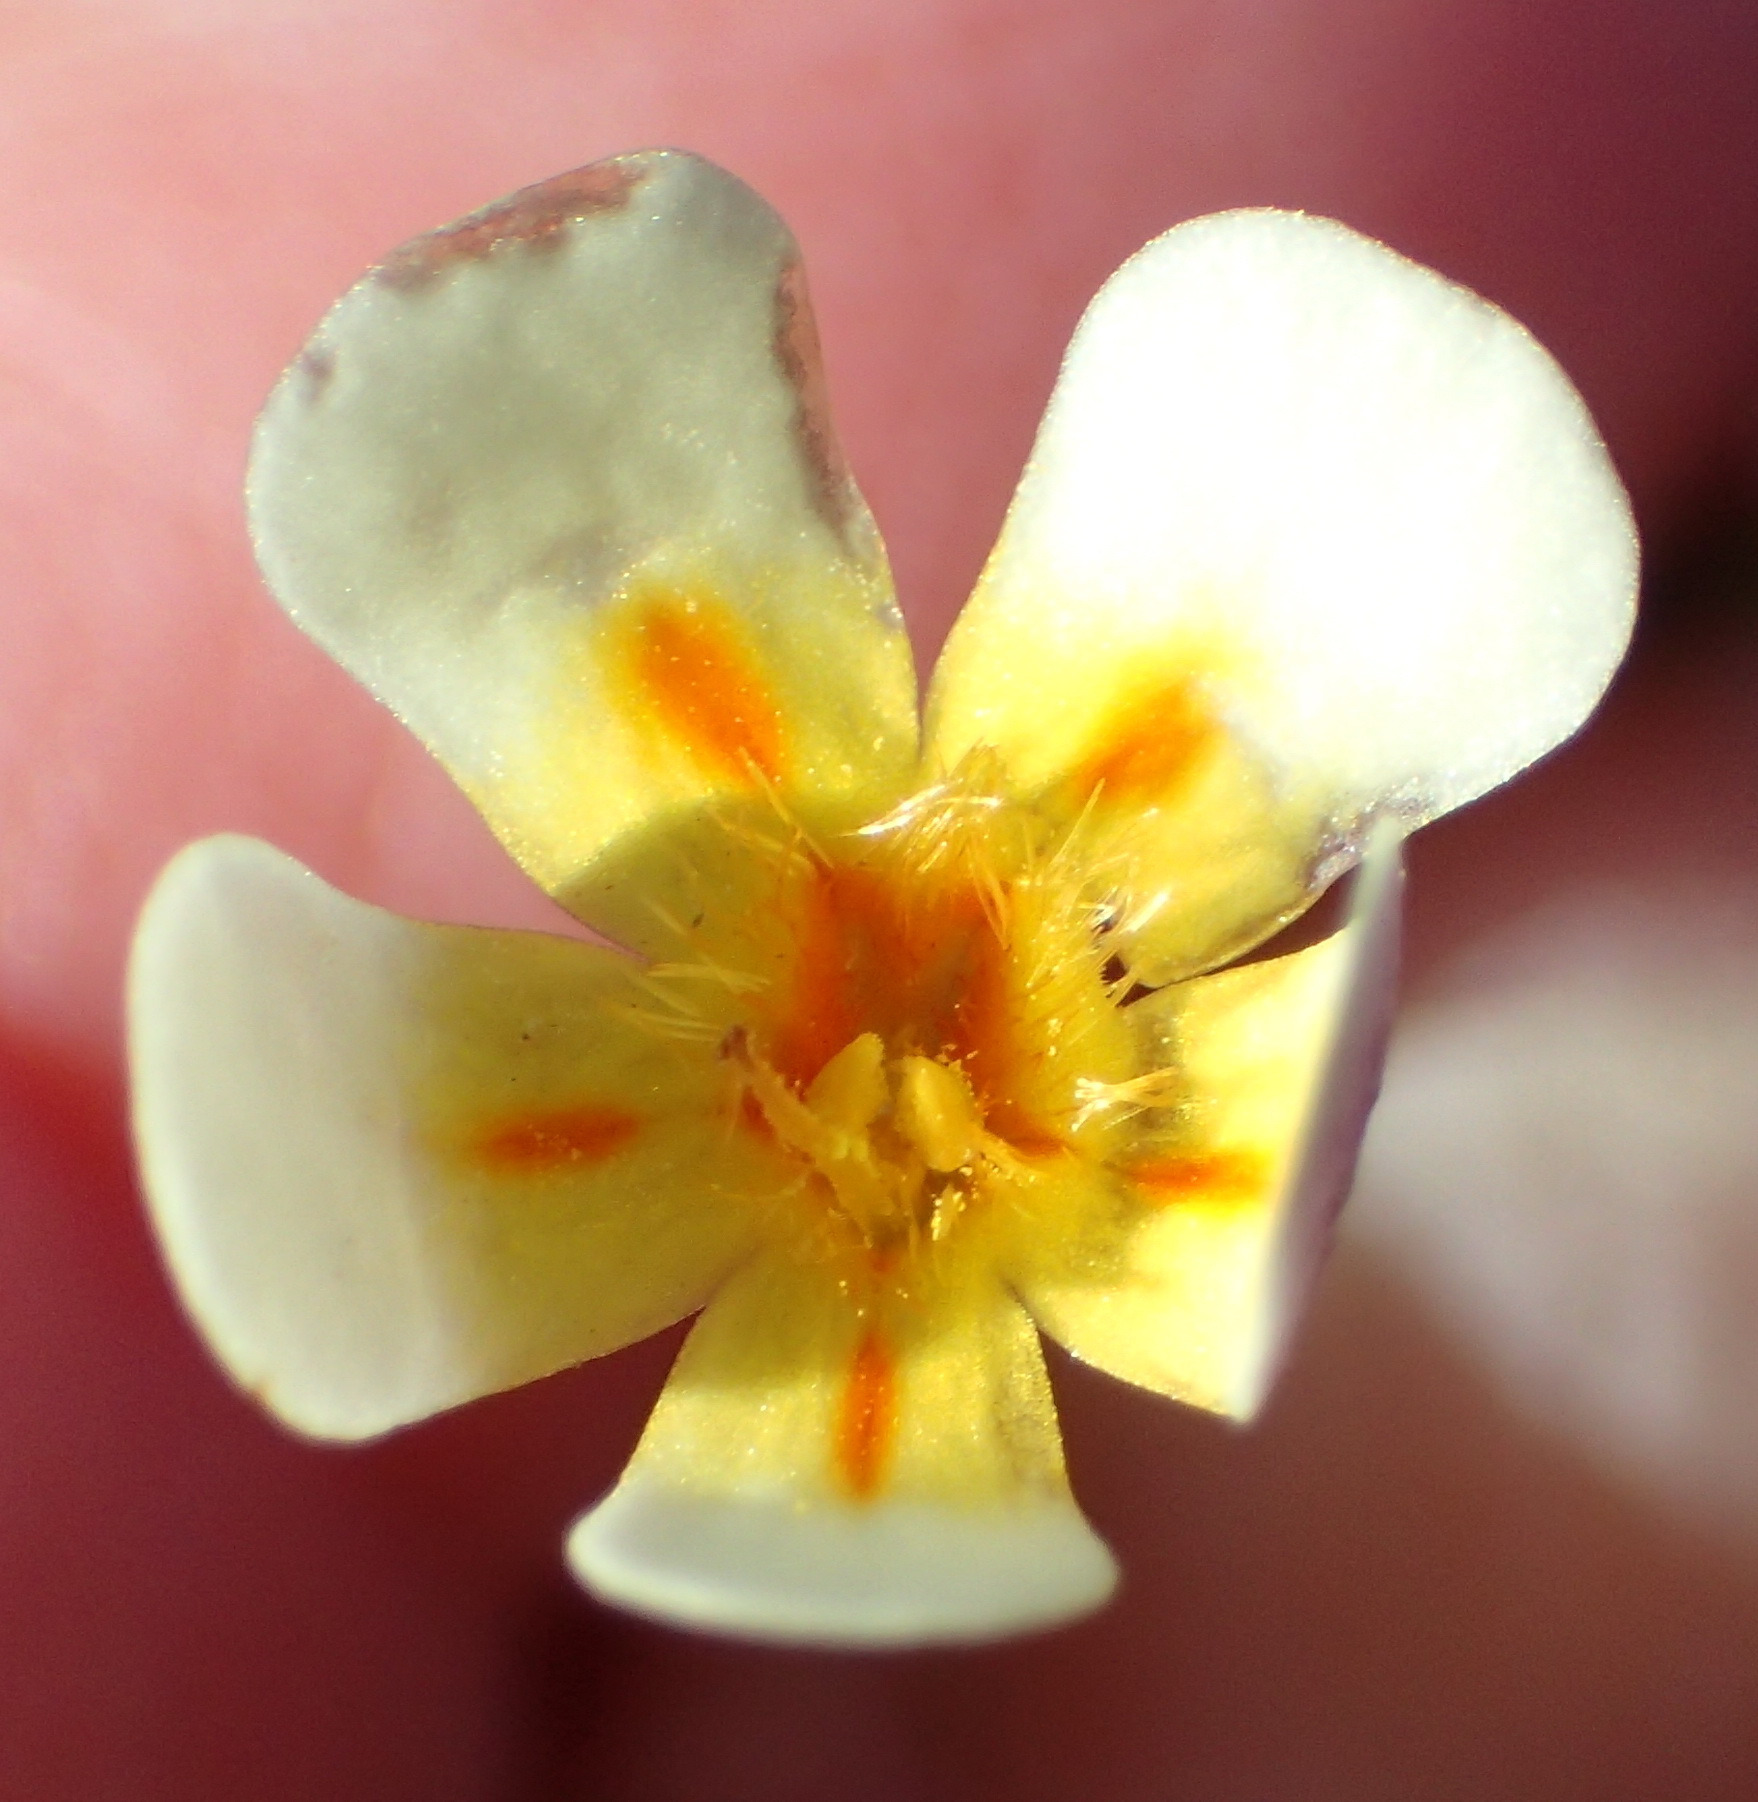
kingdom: Plantae
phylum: Tracheophyta
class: Magnoliopsida
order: Lamiales
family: Scrophulariaceae
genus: Zaluzianskya
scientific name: Zaluzianskya acrobareia
